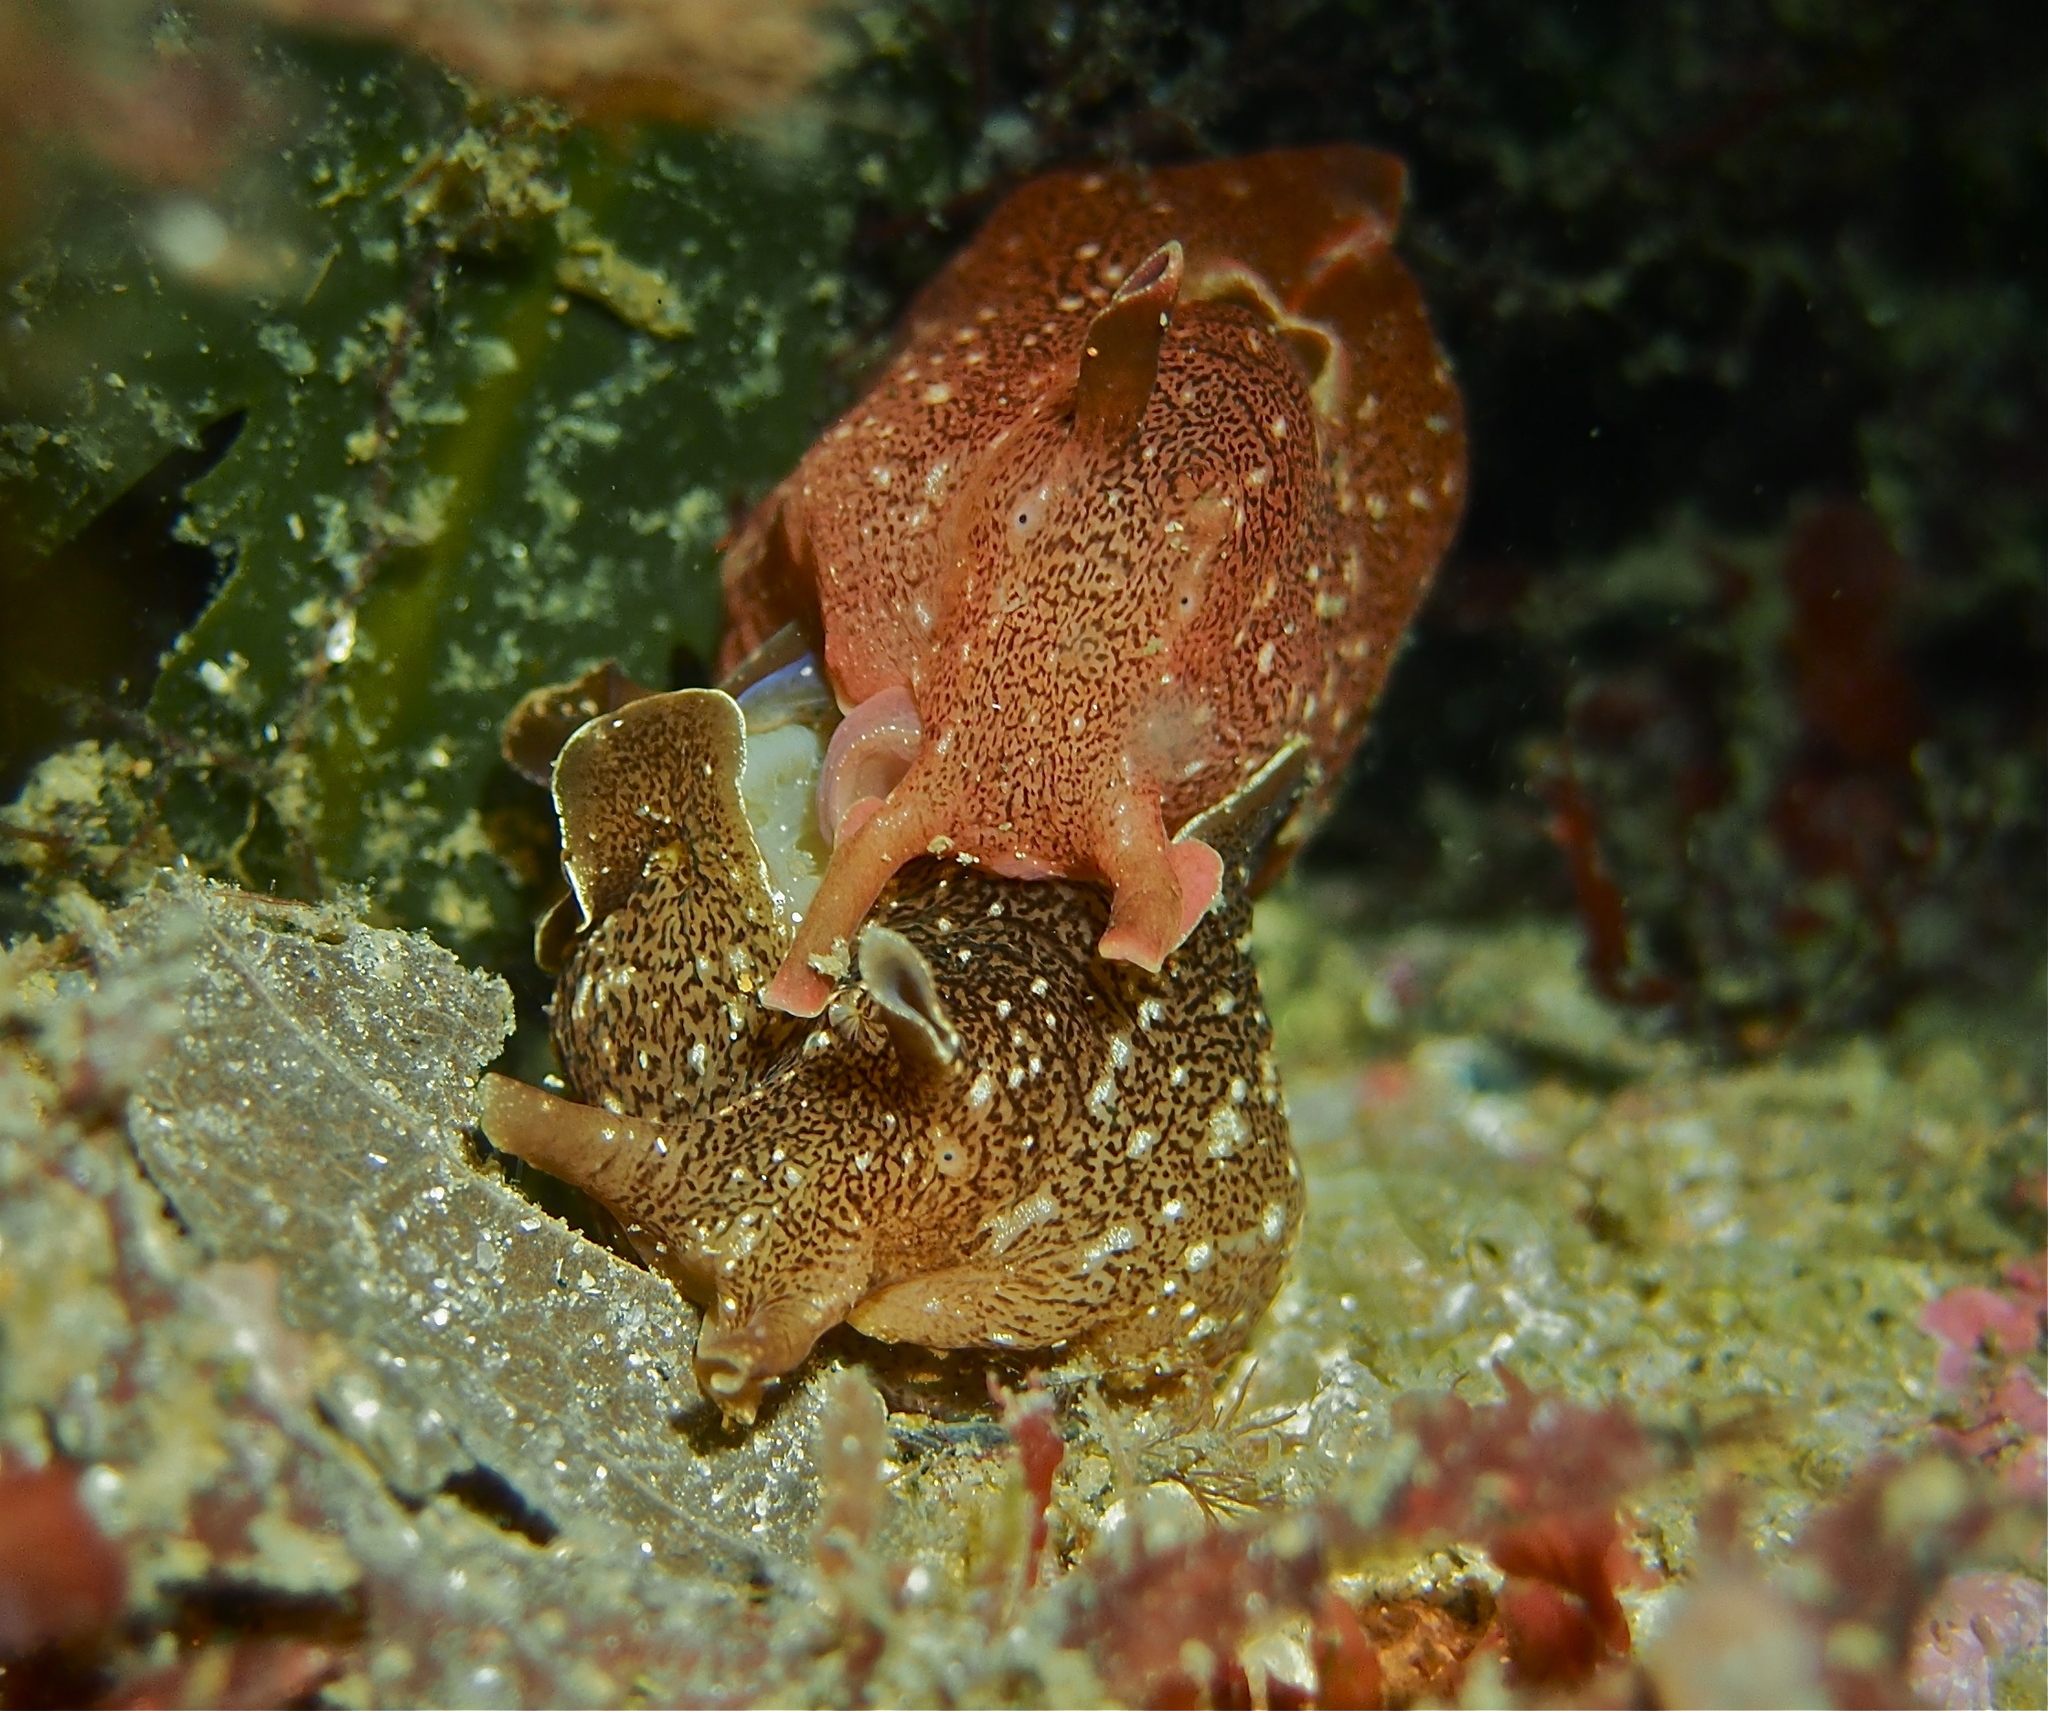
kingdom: Animalia
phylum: Mollusca
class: Gastropoda
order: Aplysiida
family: Aplysiidae
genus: Aplysia
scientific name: Aplysia punctata
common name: Common sea hare
